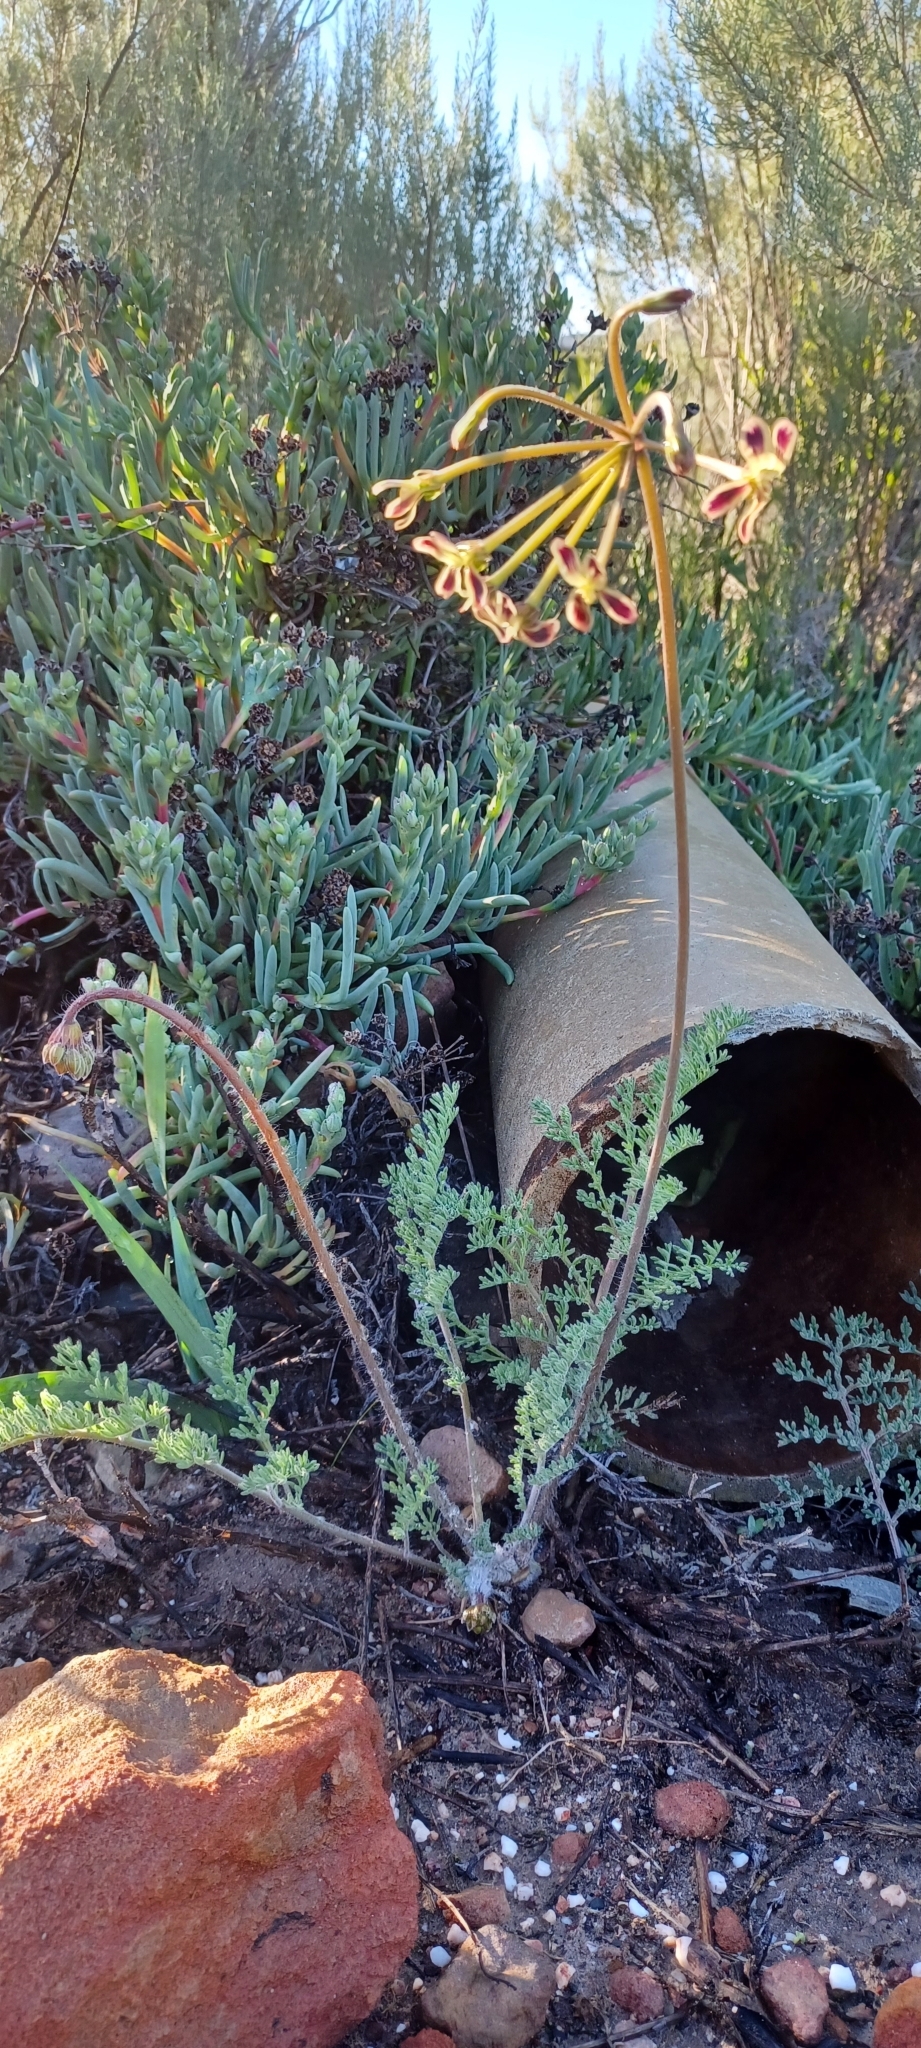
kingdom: Plantae
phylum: Tracheophyta
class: Magnoliopsida
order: Geraniales
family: Geraniaceae
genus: Pelargonium
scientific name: Pelargonium triste
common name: Night-scent pelargonium
